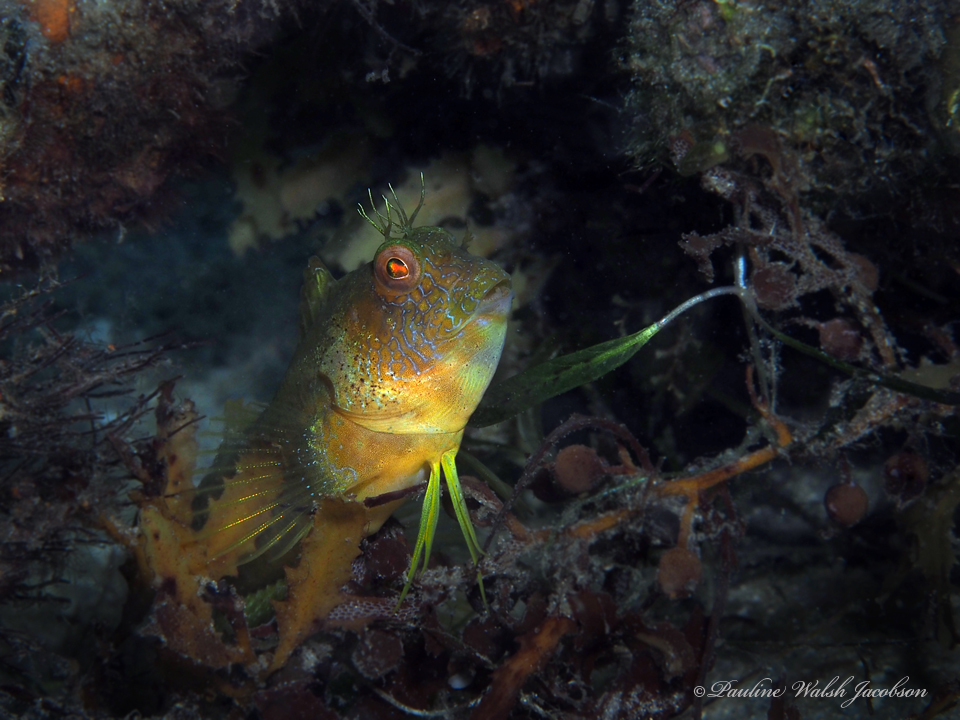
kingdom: Animalia
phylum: Chordata
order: Perciformes
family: Blenniidae
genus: Parablennius
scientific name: Parablennius marmoreus
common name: Seaweed blenny
